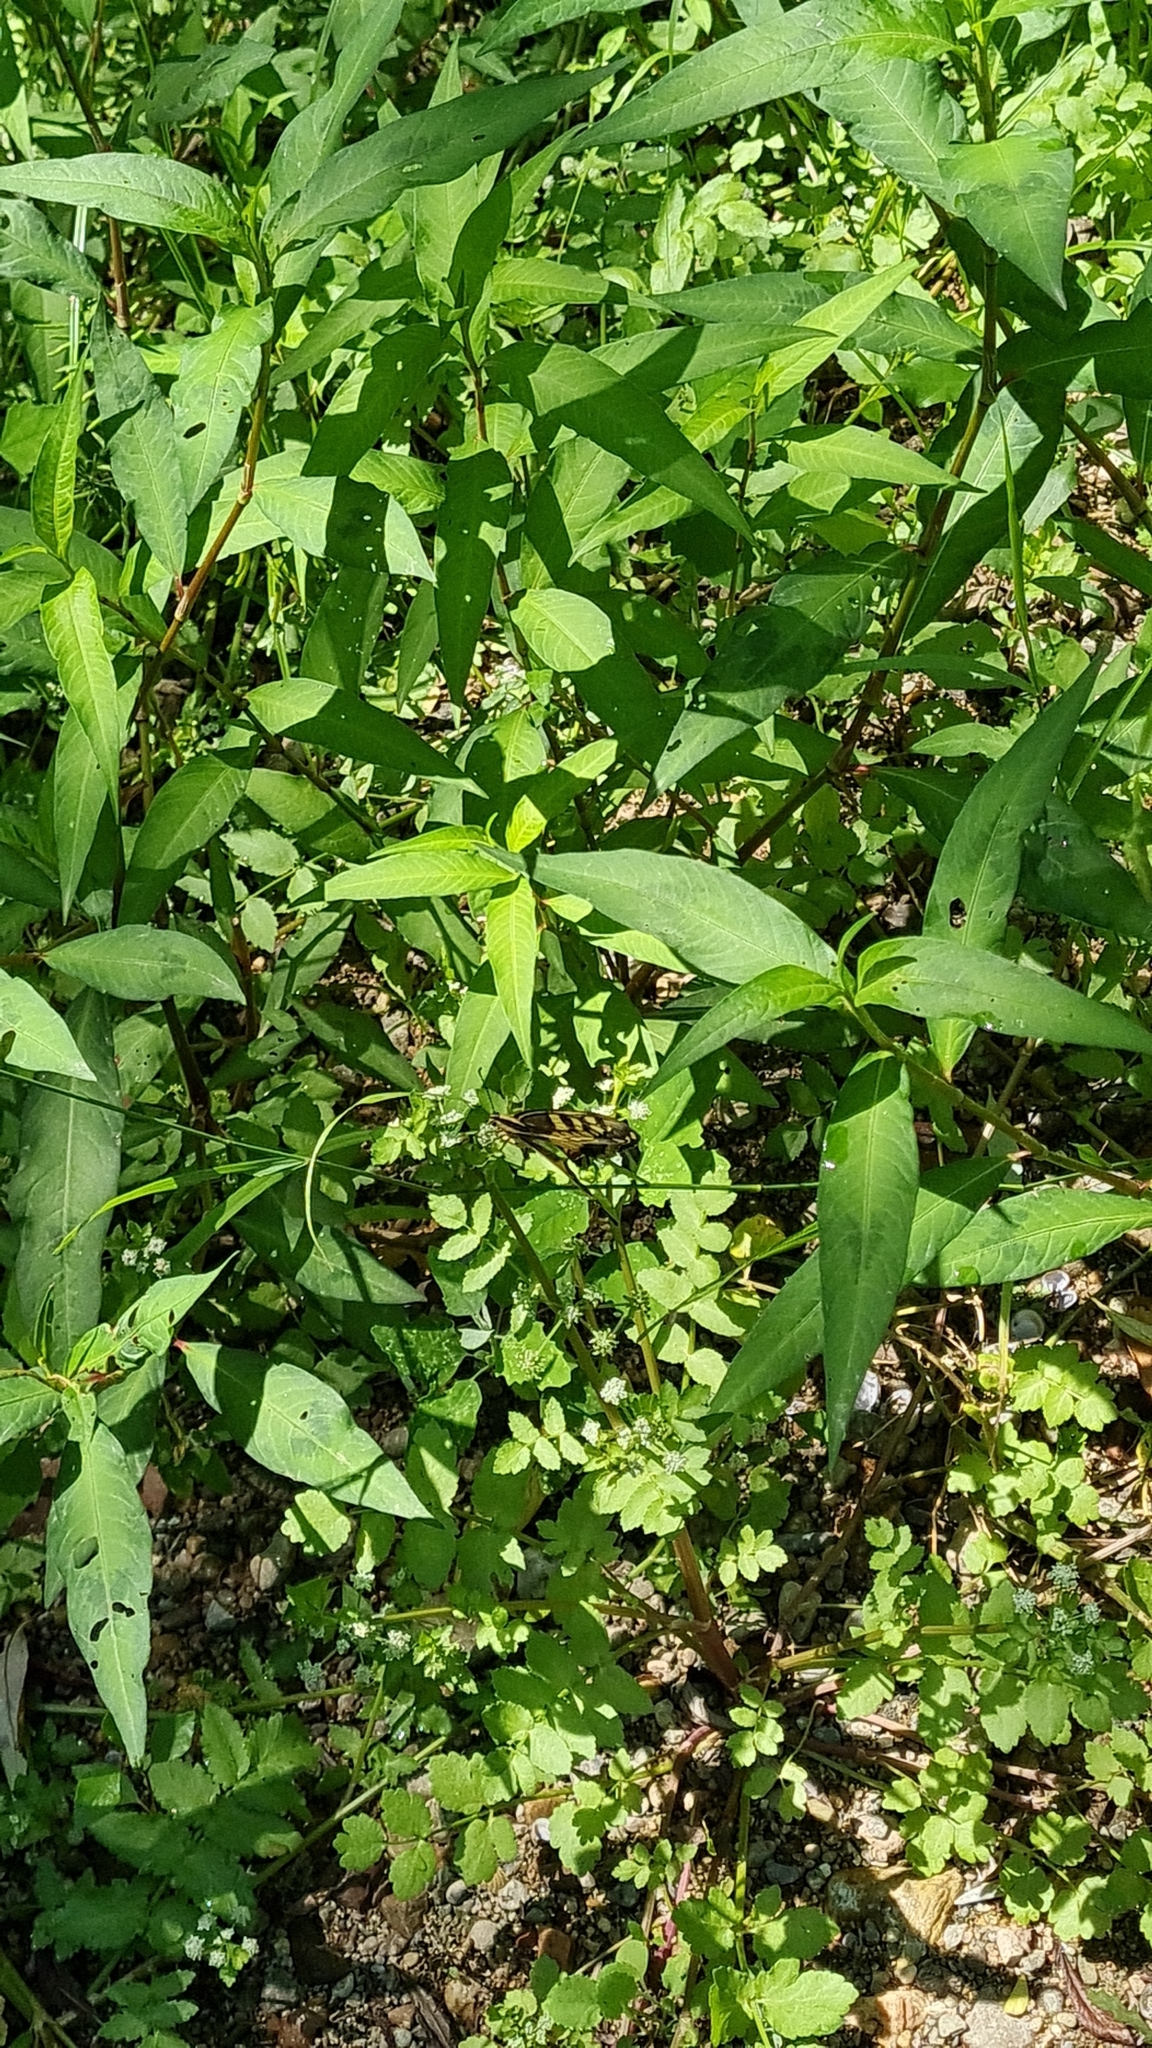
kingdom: Animalia
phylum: Arthropoda
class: Insecta
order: Lepidoptera
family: Papilionidae
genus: Papilio
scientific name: Papilio machaon
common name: Swallowtail
